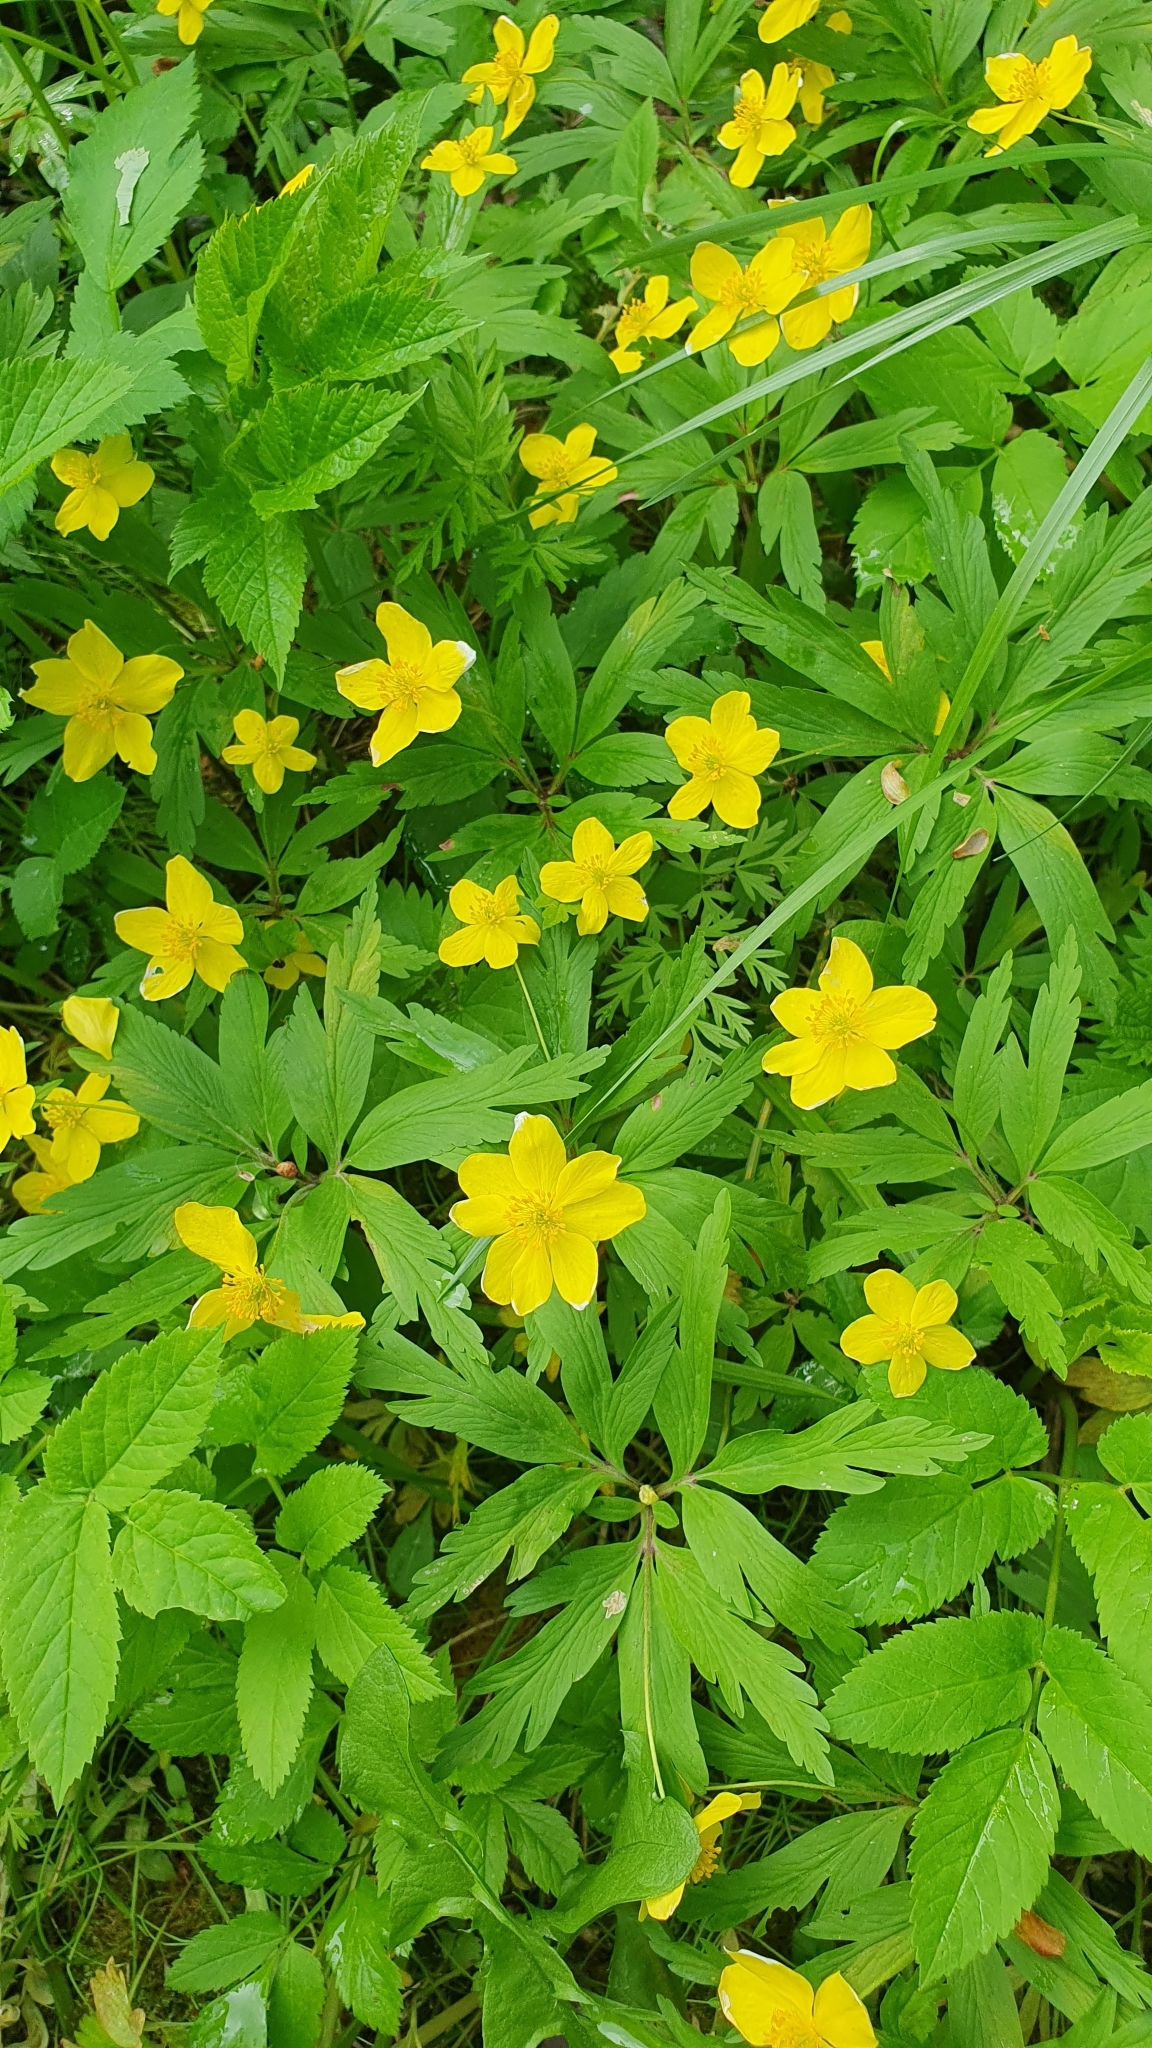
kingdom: Plantae
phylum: Tracheophyta
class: Magnoliopsida
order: Ranunculales
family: Ranunculaceae
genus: Anemone
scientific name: Anemone ranunculoides
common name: Yellow anemone
